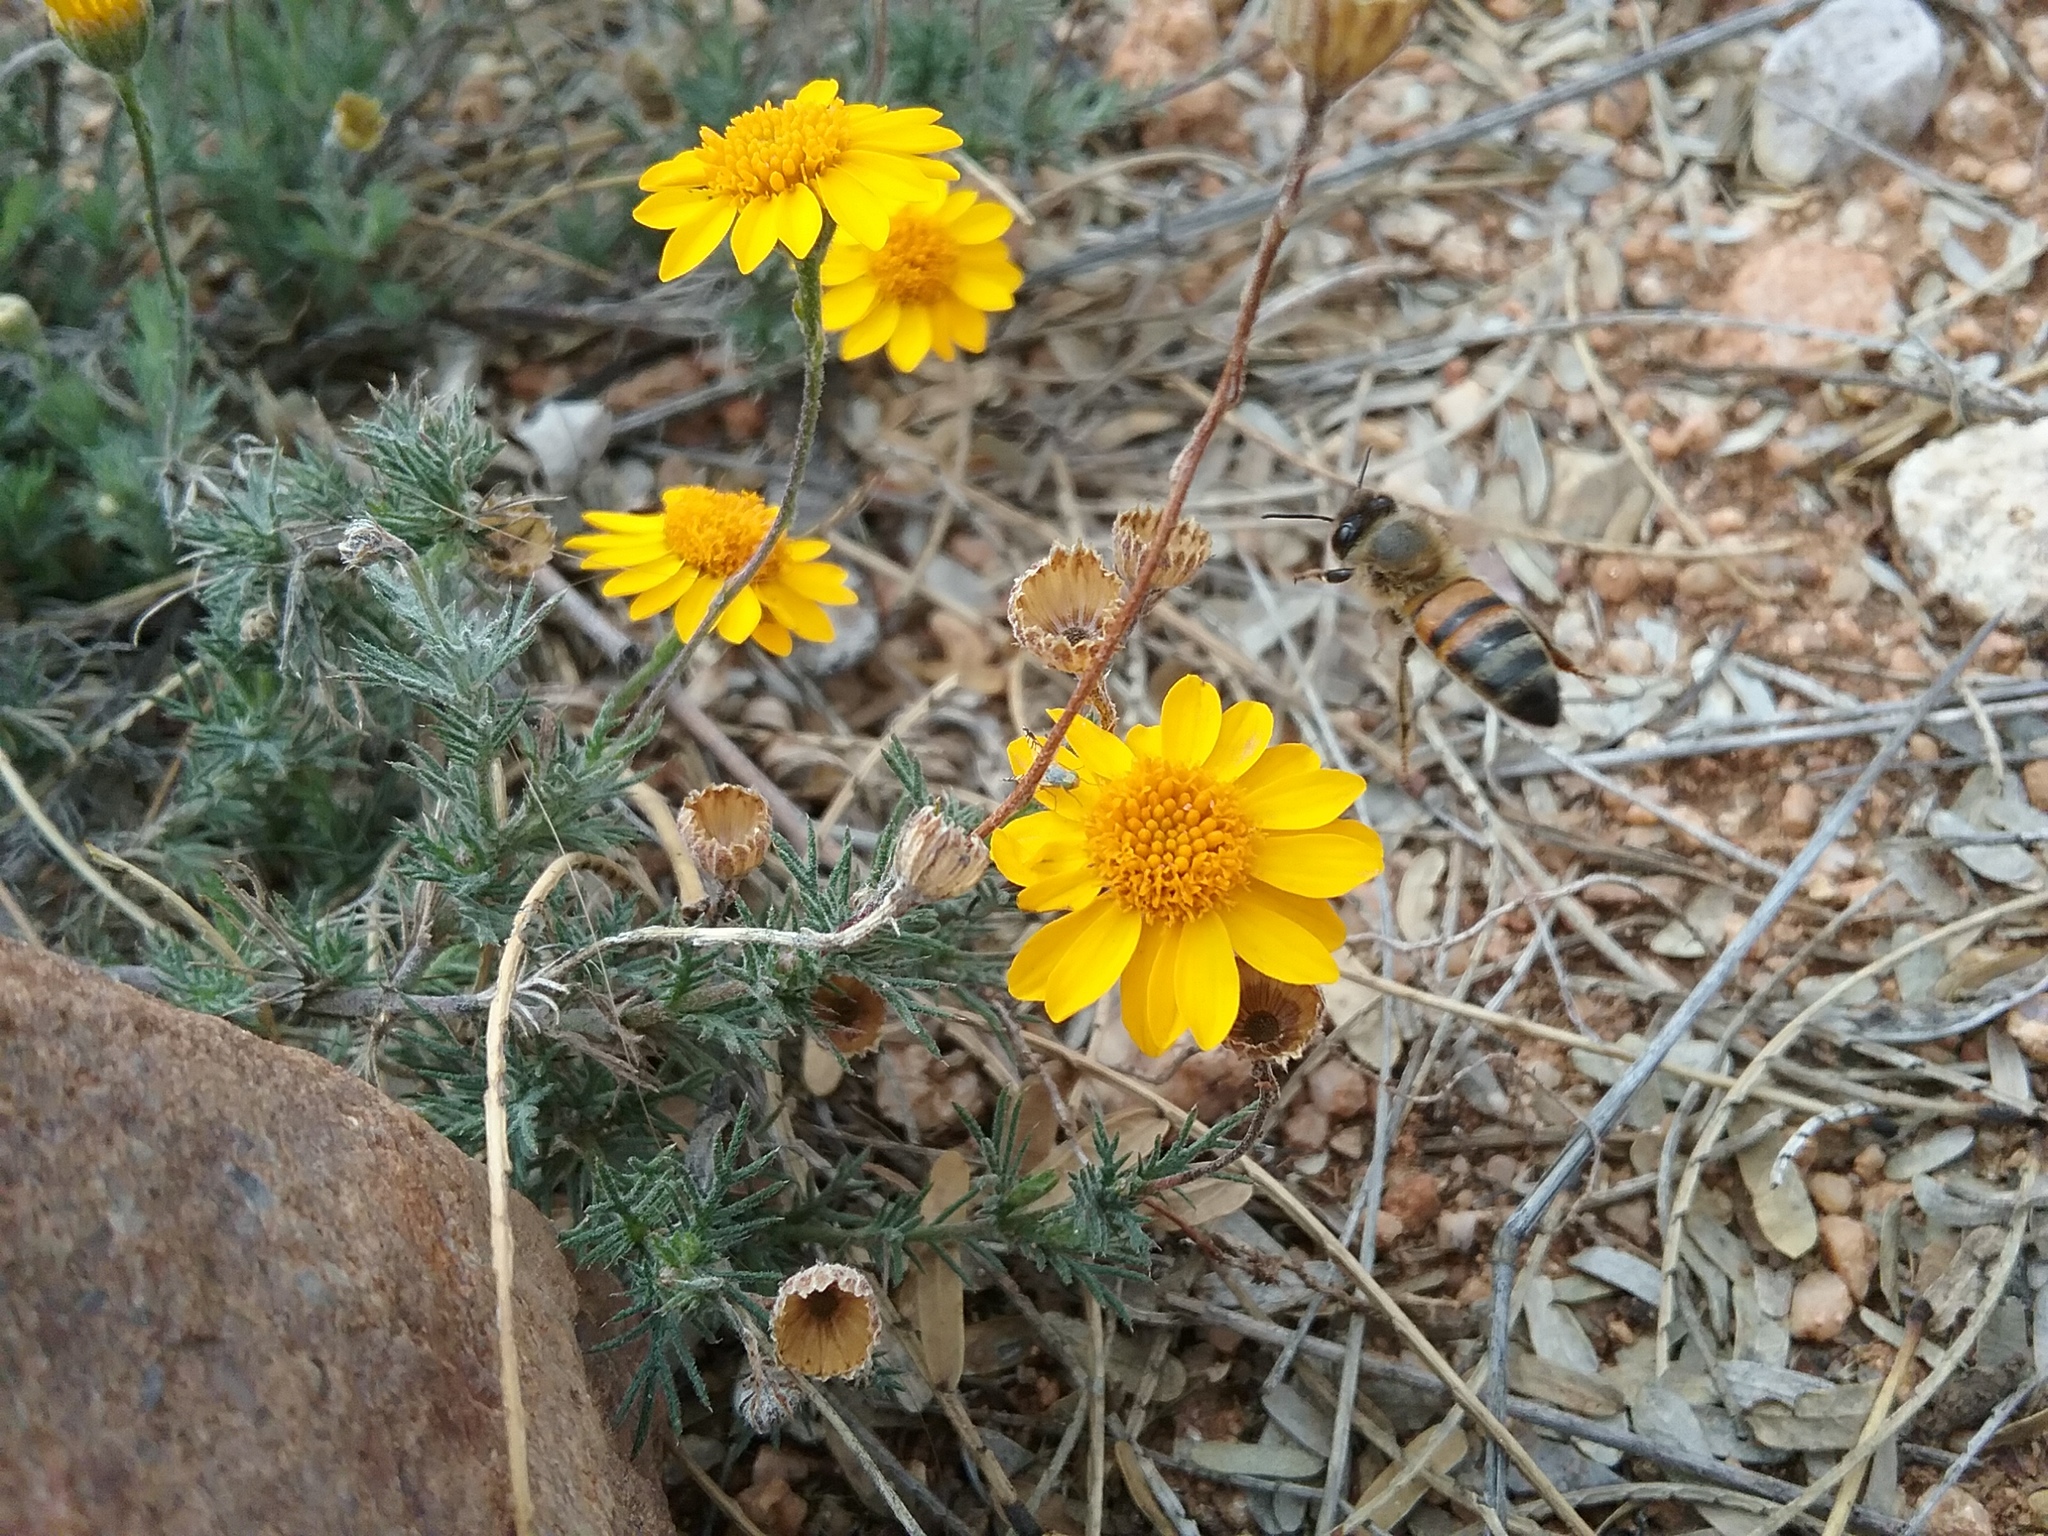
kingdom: Animalia
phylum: Arthropoda
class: Insecta
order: Hymenoptera
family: Apidae
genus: Apis
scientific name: Apis mellifera
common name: Honey bee
